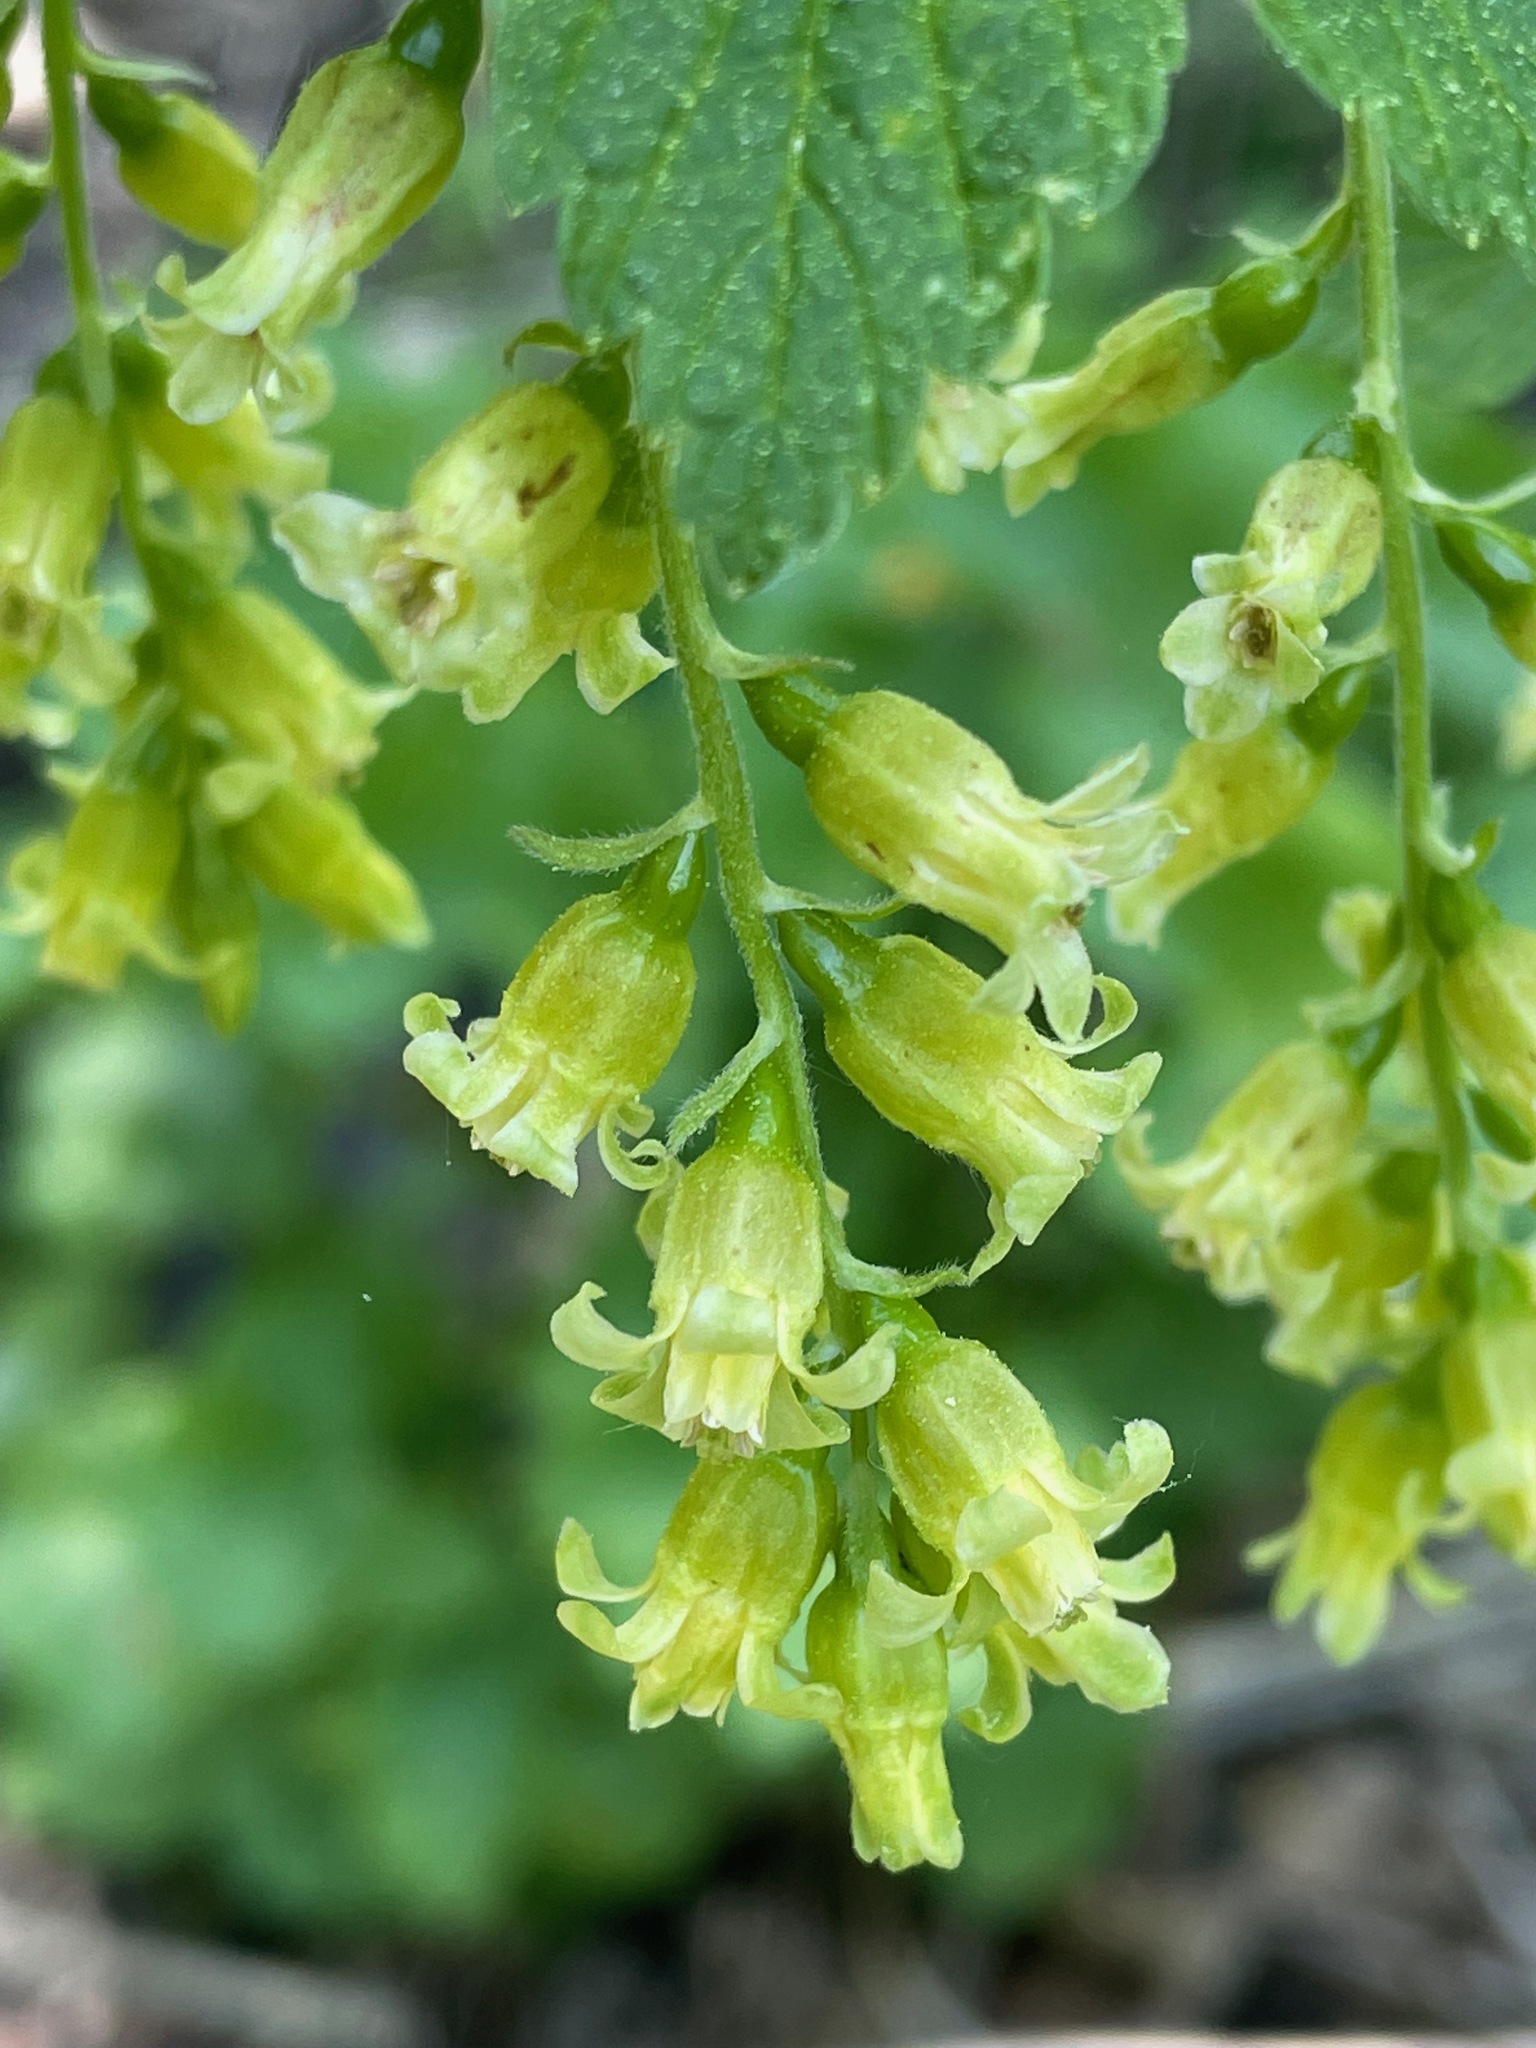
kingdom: Plantae
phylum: Tracheophyta
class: Magnoliopsida
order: Saxifragales
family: Grossulariaceae
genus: Ribes
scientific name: Ribes americanum
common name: American black currant
